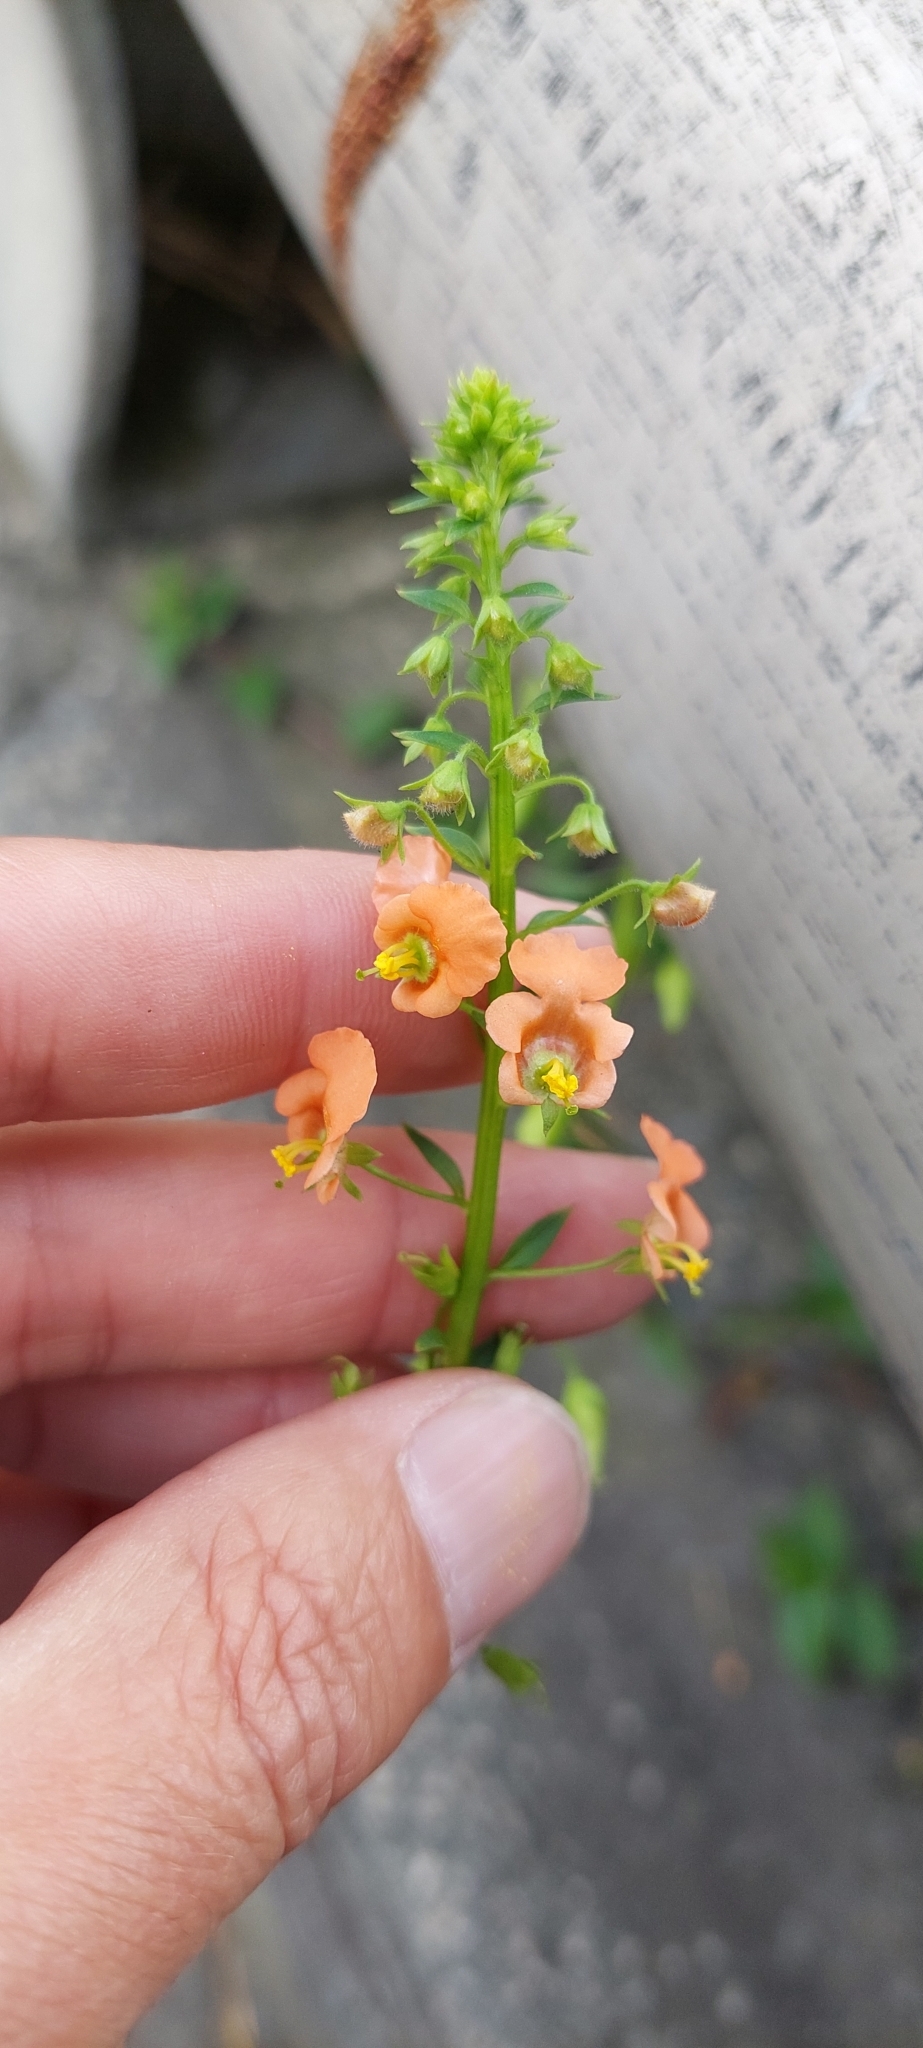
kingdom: Plantae
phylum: Tracheophyta
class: Magnoliopsida
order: Lamiales
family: Scrophulariaceae
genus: Alonsoa
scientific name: Alonsoa meridionalis
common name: Maskflower
